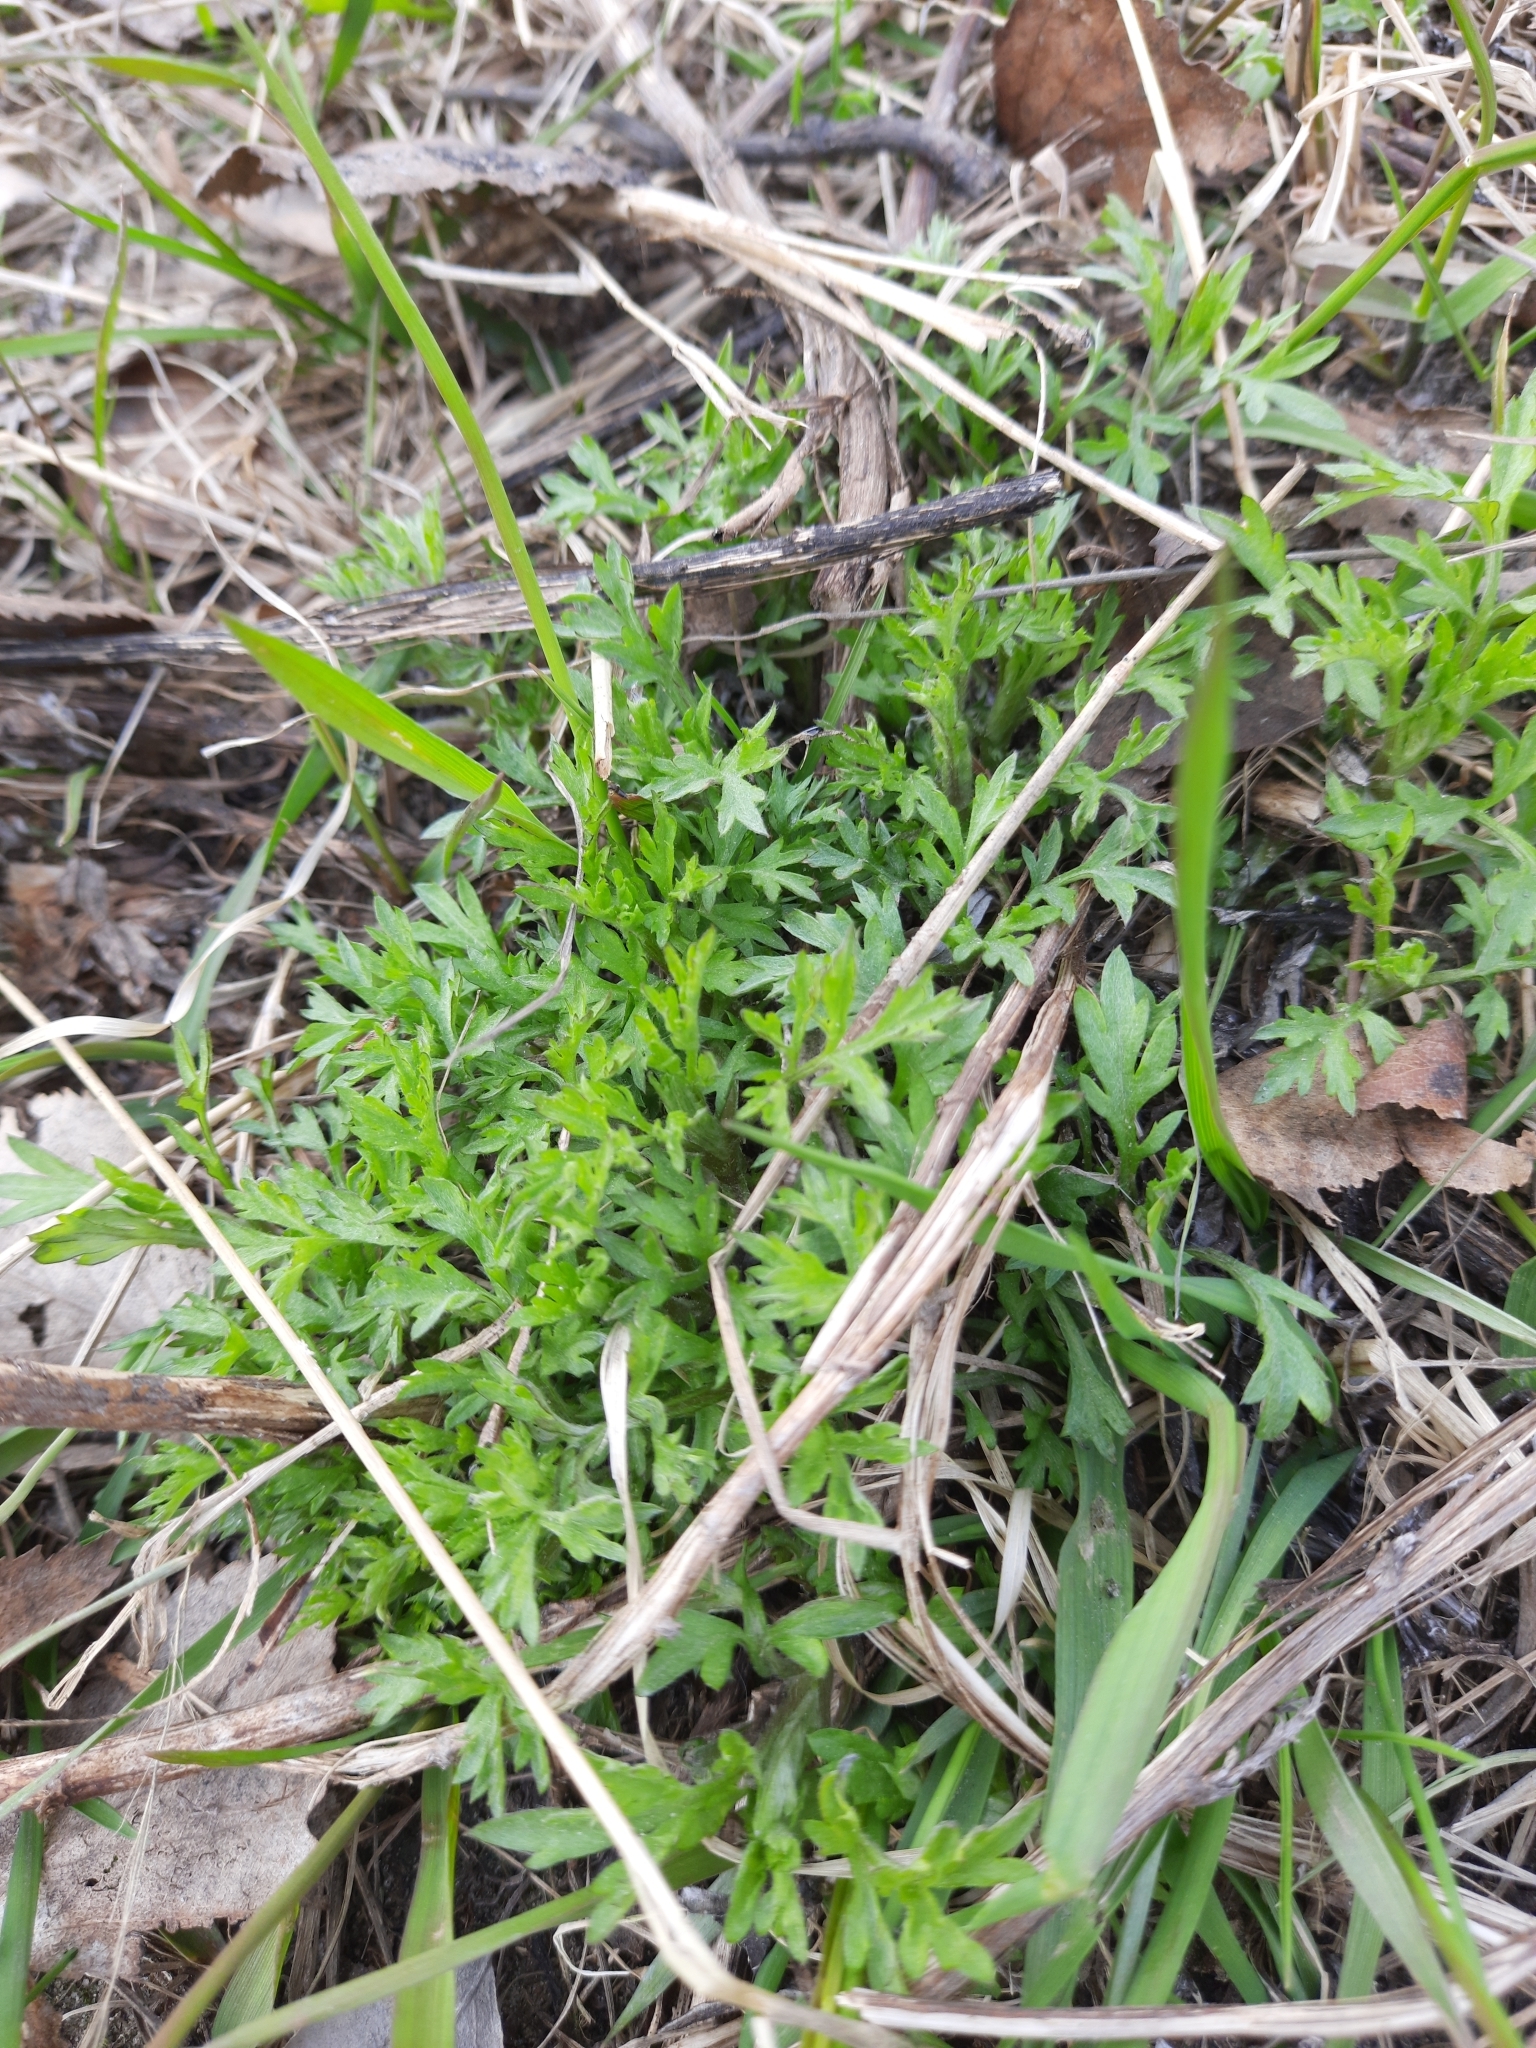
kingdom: Plantae
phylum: Tracheophyta
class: Magnoliopsida
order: Asterales
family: Asteraceae
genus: Artemisia
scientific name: Artemisia vulgaris
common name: Mugwort
